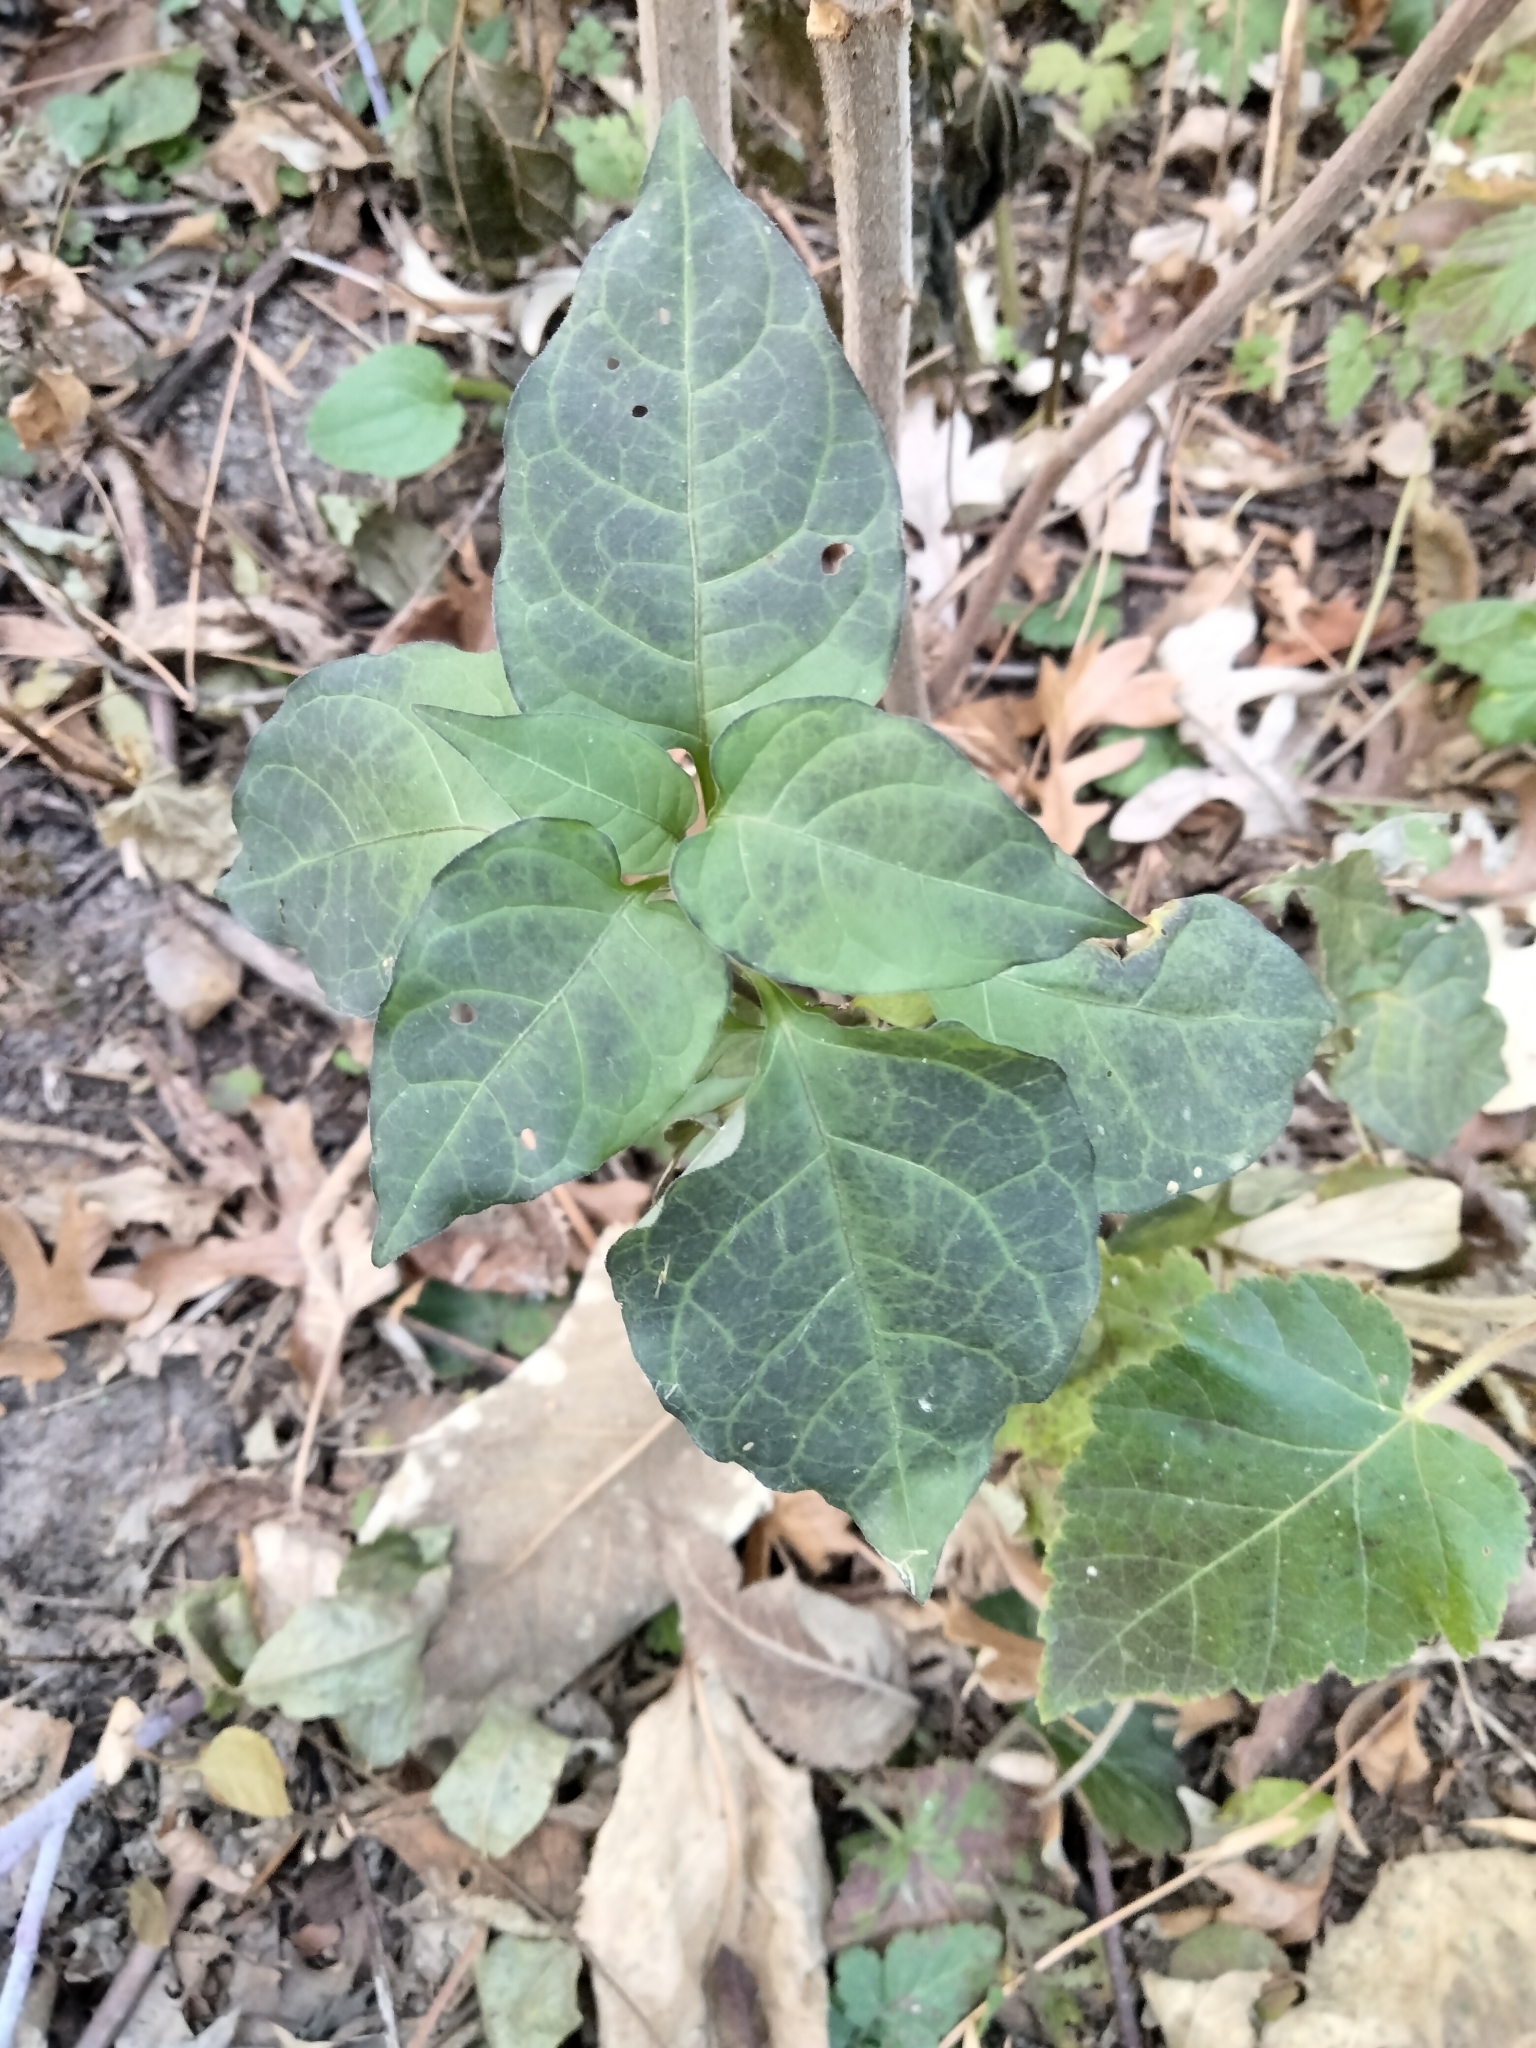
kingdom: Plantae
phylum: Tracheophyta
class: Magnoliopsida
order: Solanales
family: Solanaceae
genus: Solanum
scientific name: Solanum dulcamara
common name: Climbing nightshade
